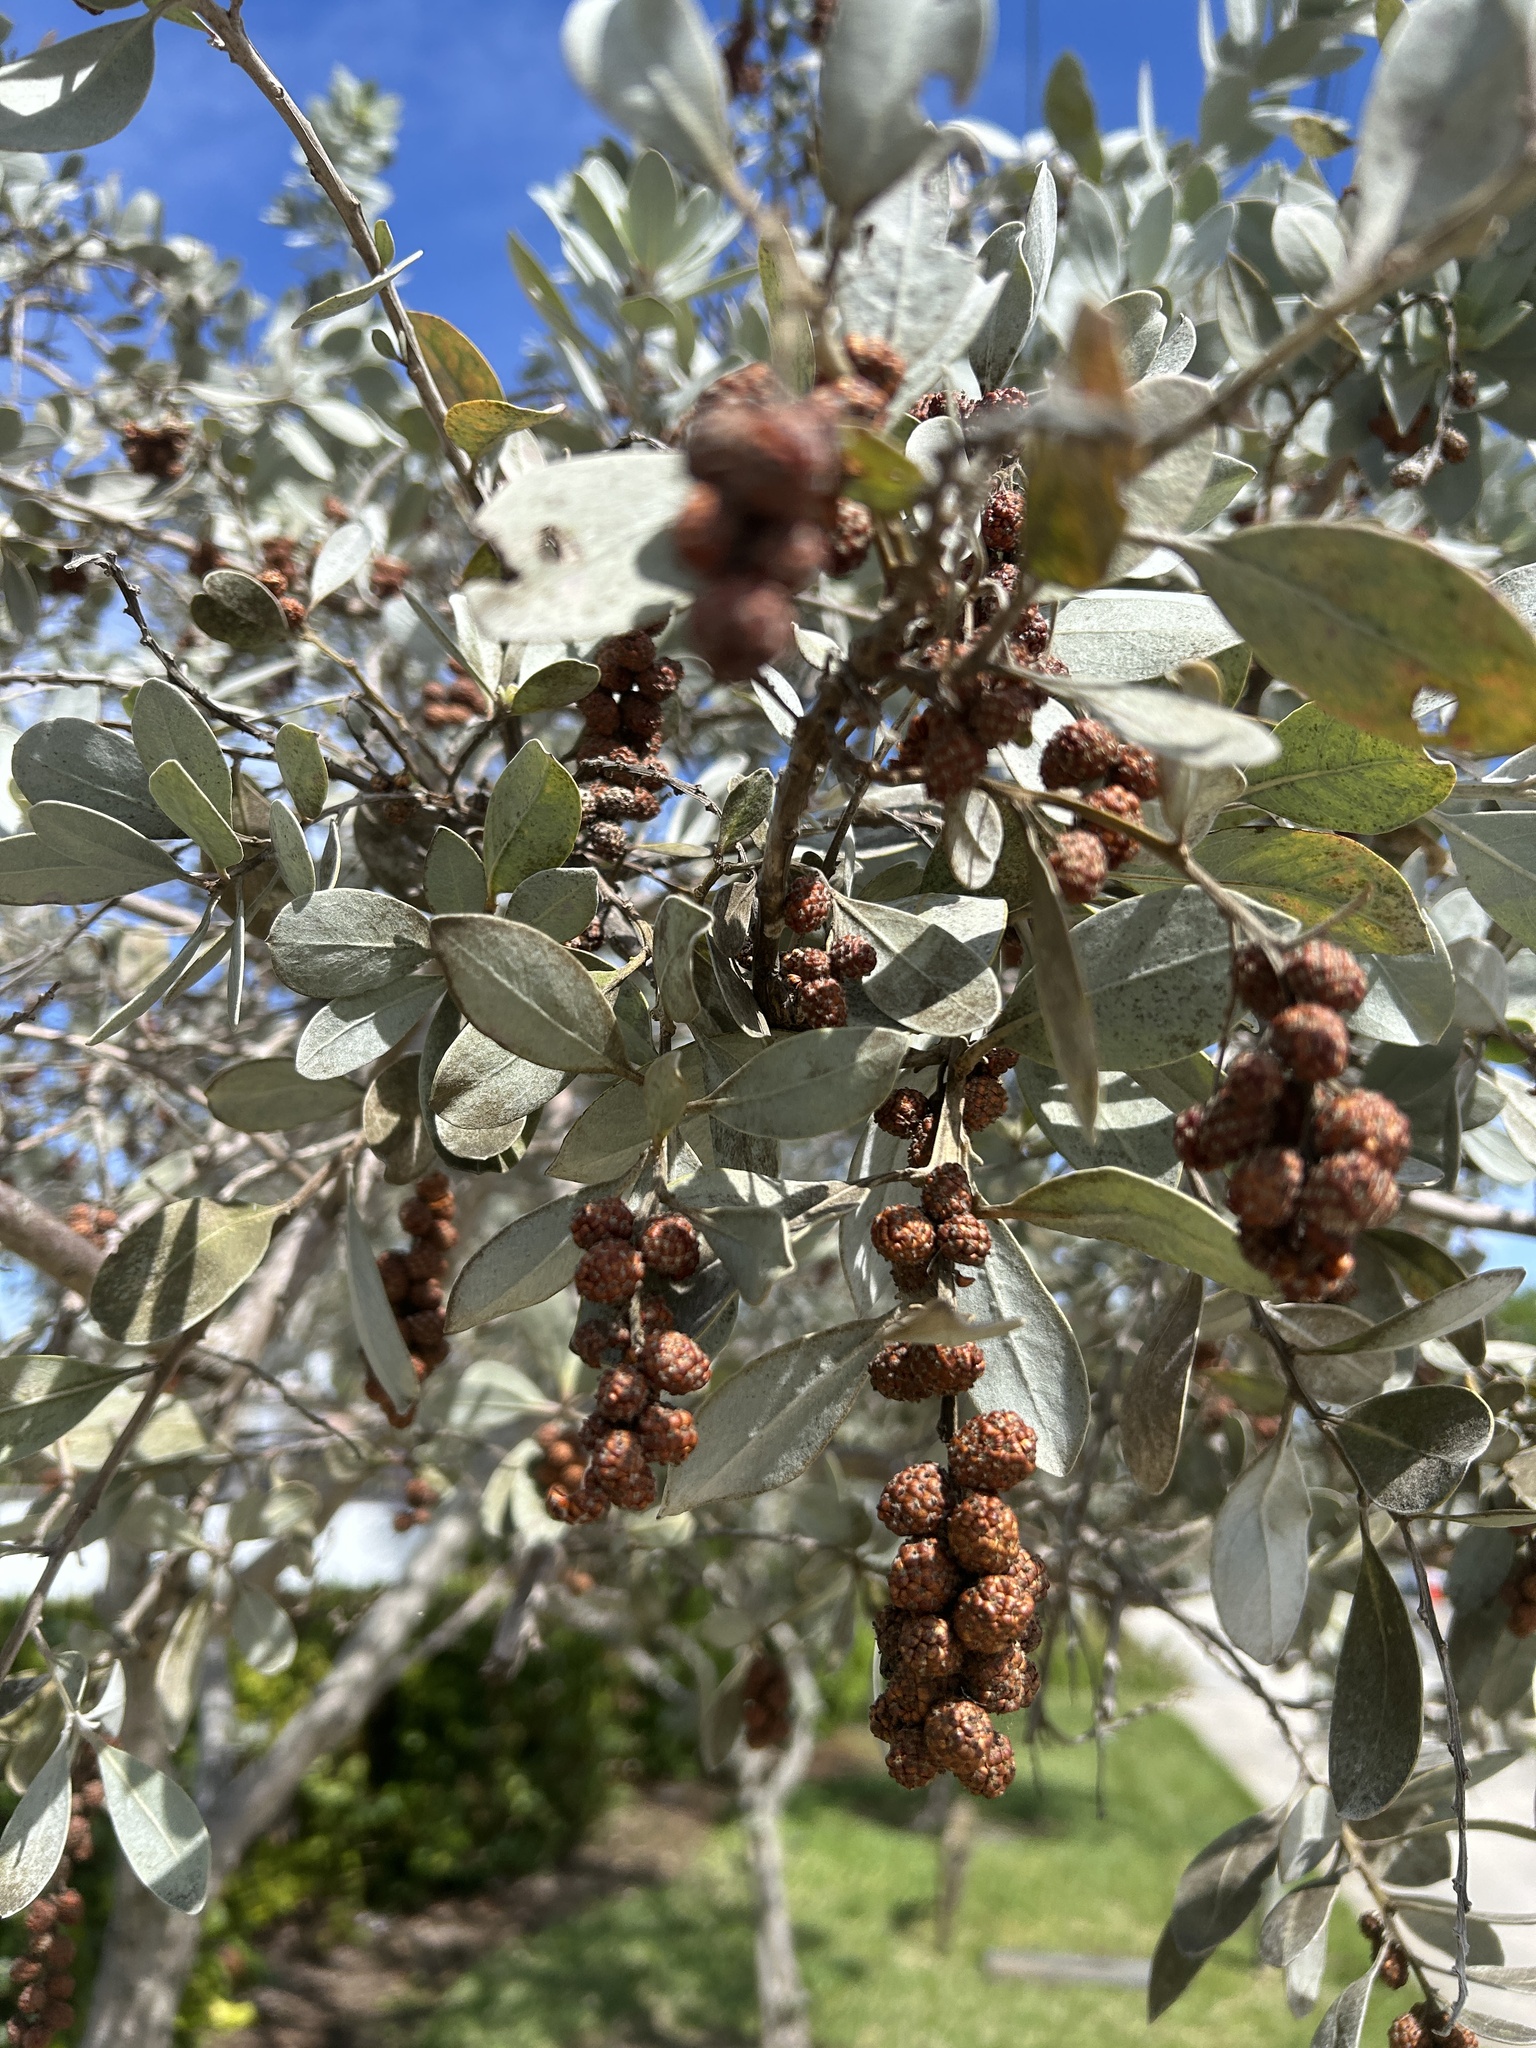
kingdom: Plantae
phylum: Tracheophyta
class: Magnoliopsida
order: Myrtales
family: Combretaceae
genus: Conocarpus
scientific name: Conocarpus erectus
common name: Button mangrove
